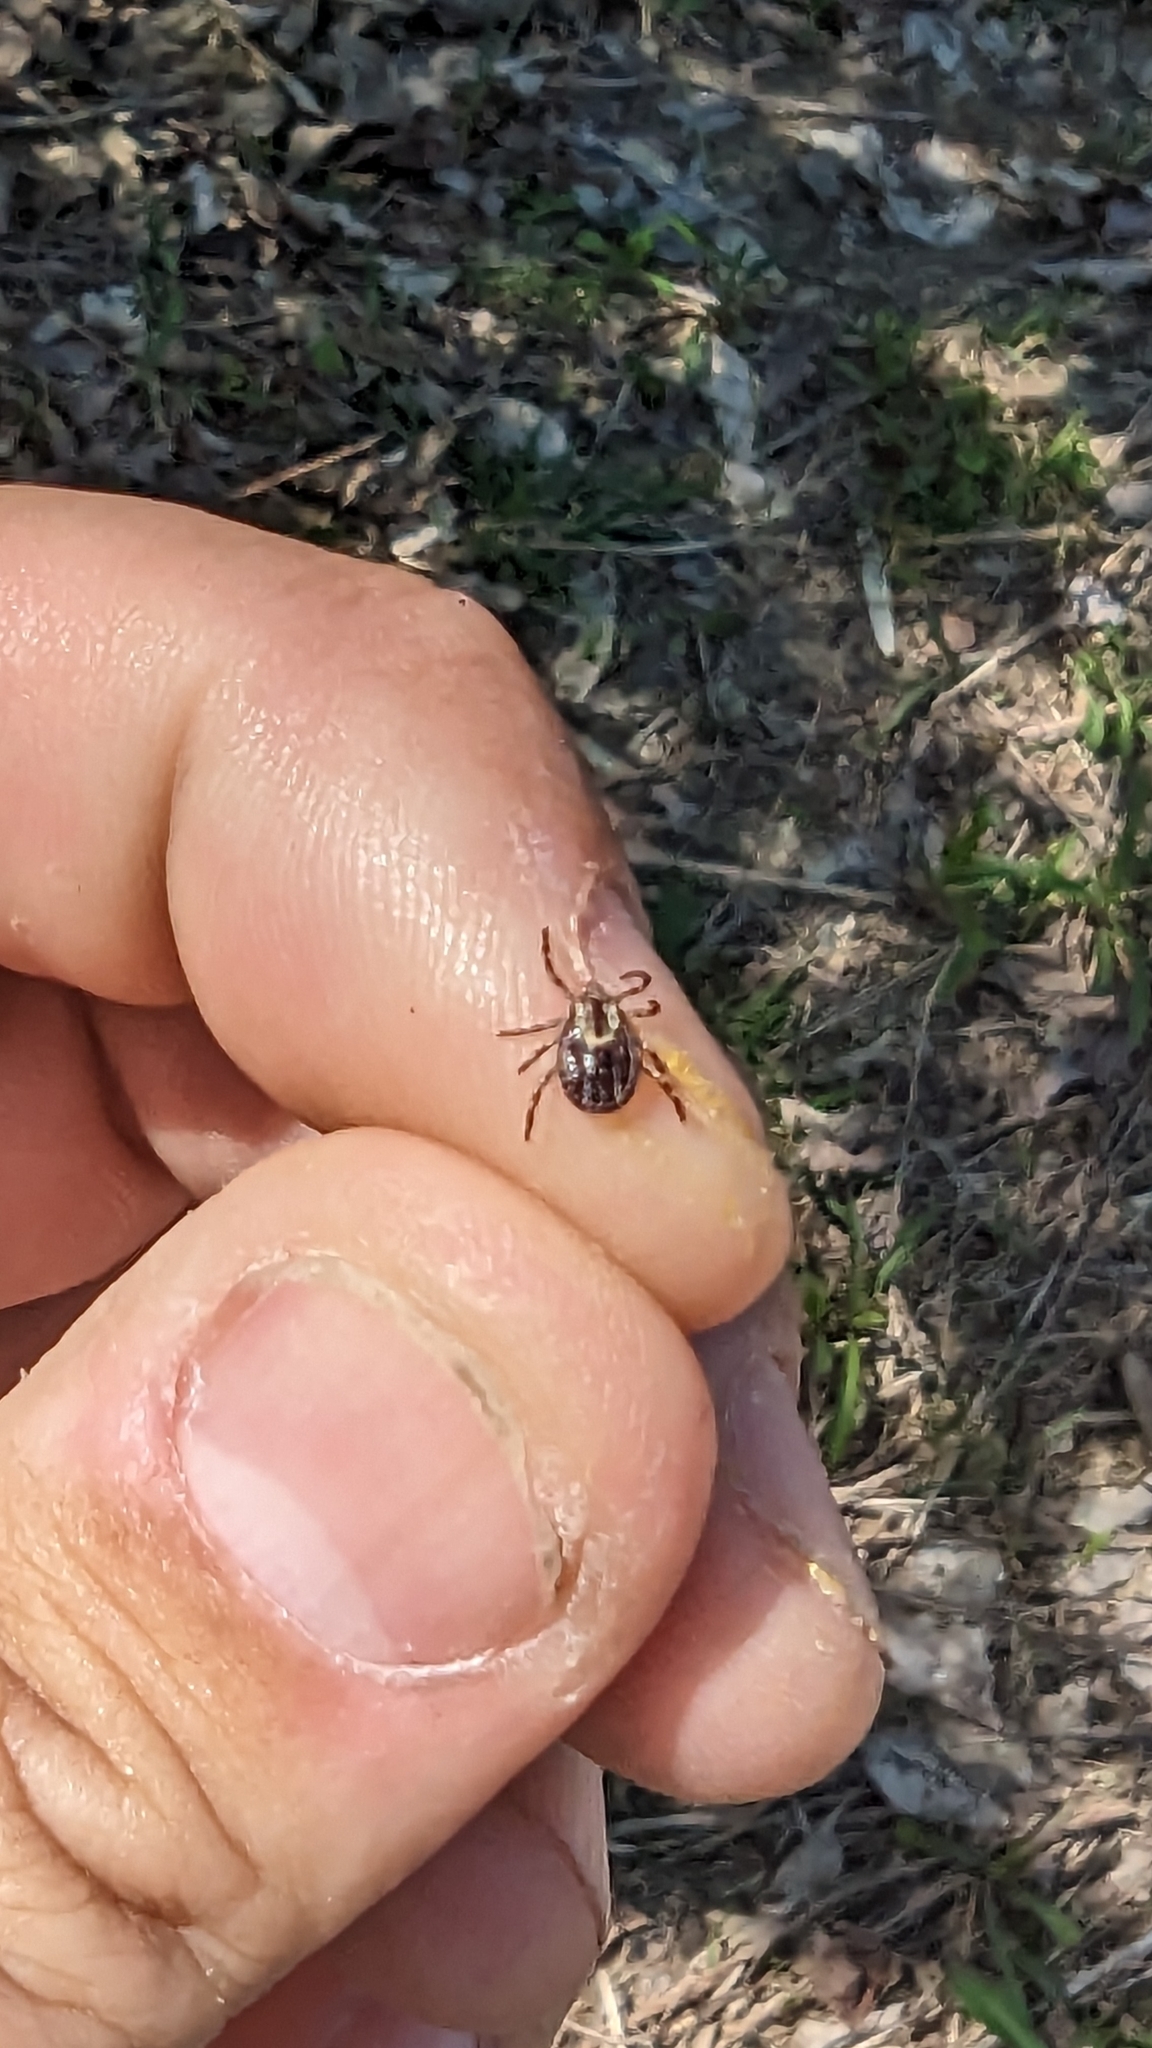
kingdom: Animalia
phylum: Arthropoda
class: Arachnida
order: Ixodida
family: Ixodidae
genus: Dermacentor
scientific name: Dermacentor variabilis
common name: American dog tick
